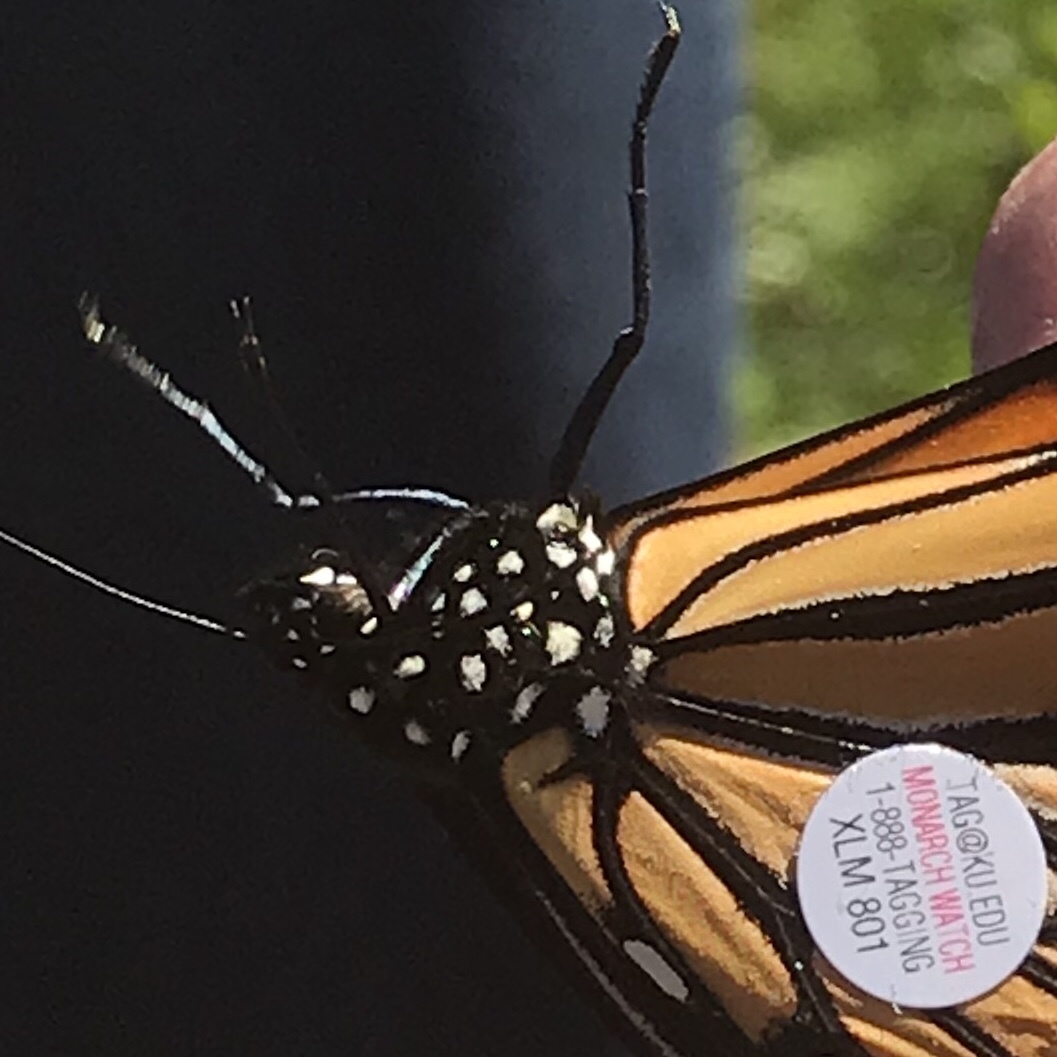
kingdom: Animalia
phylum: Arthropoda
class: Insecta
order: Lepidoptera
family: Nymphalidae
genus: Danaus
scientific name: Danaus plexippus
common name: Monarch
